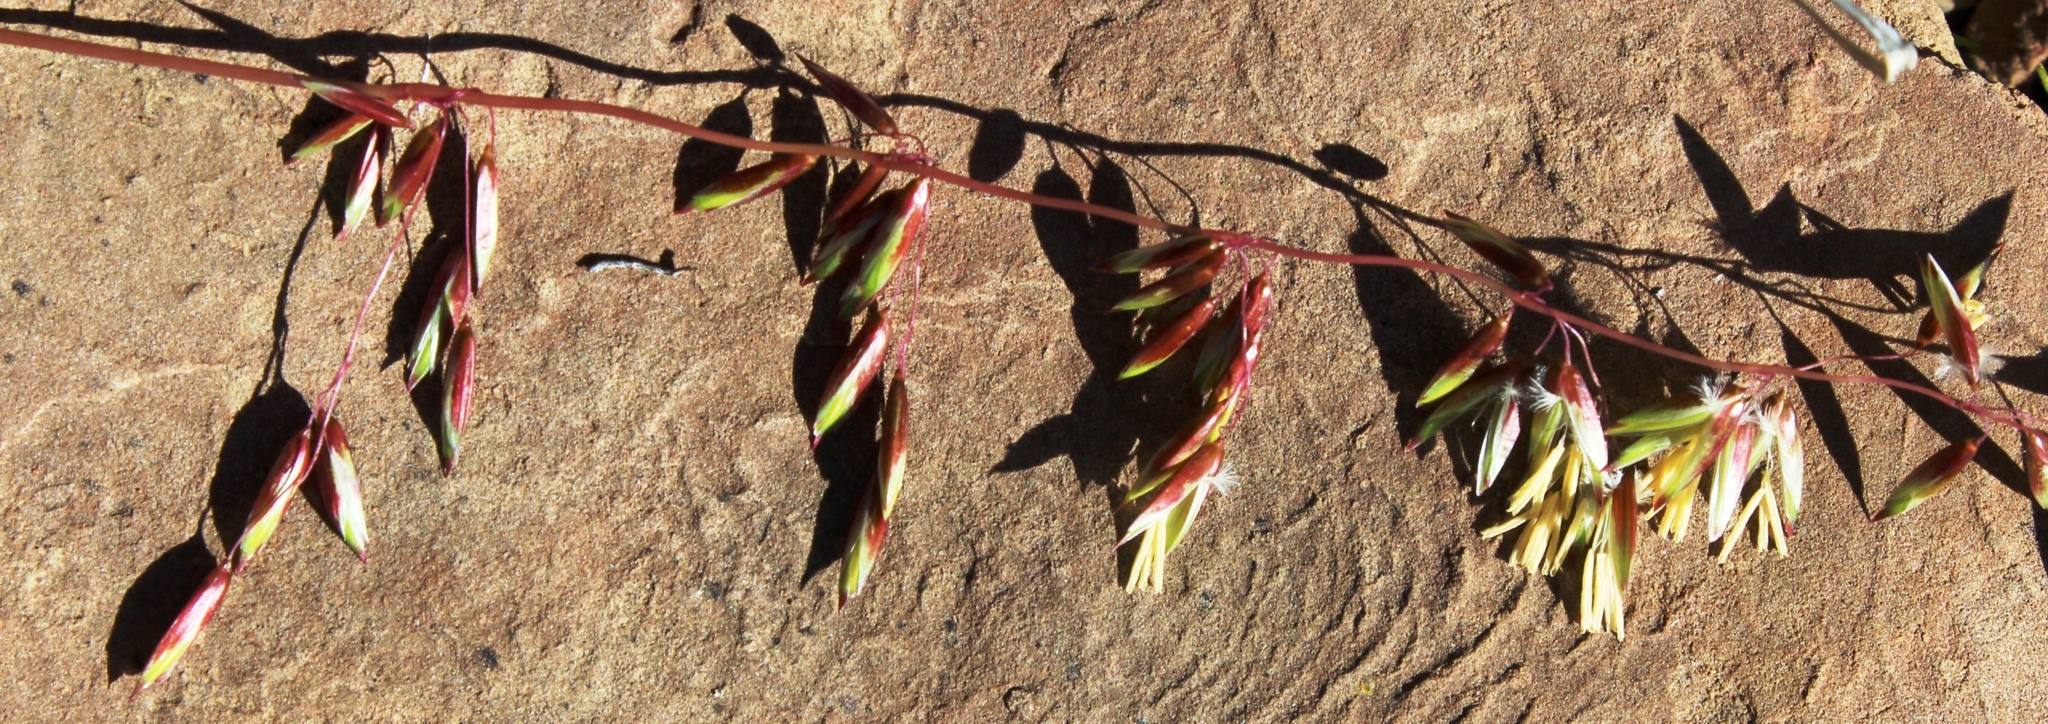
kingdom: Plantae
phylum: Tracheophyta
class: Liliopsida
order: Poales
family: Poaceae
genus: Ehrharta
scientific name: Ehrharta calycina
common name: Perennial veldtgrass
